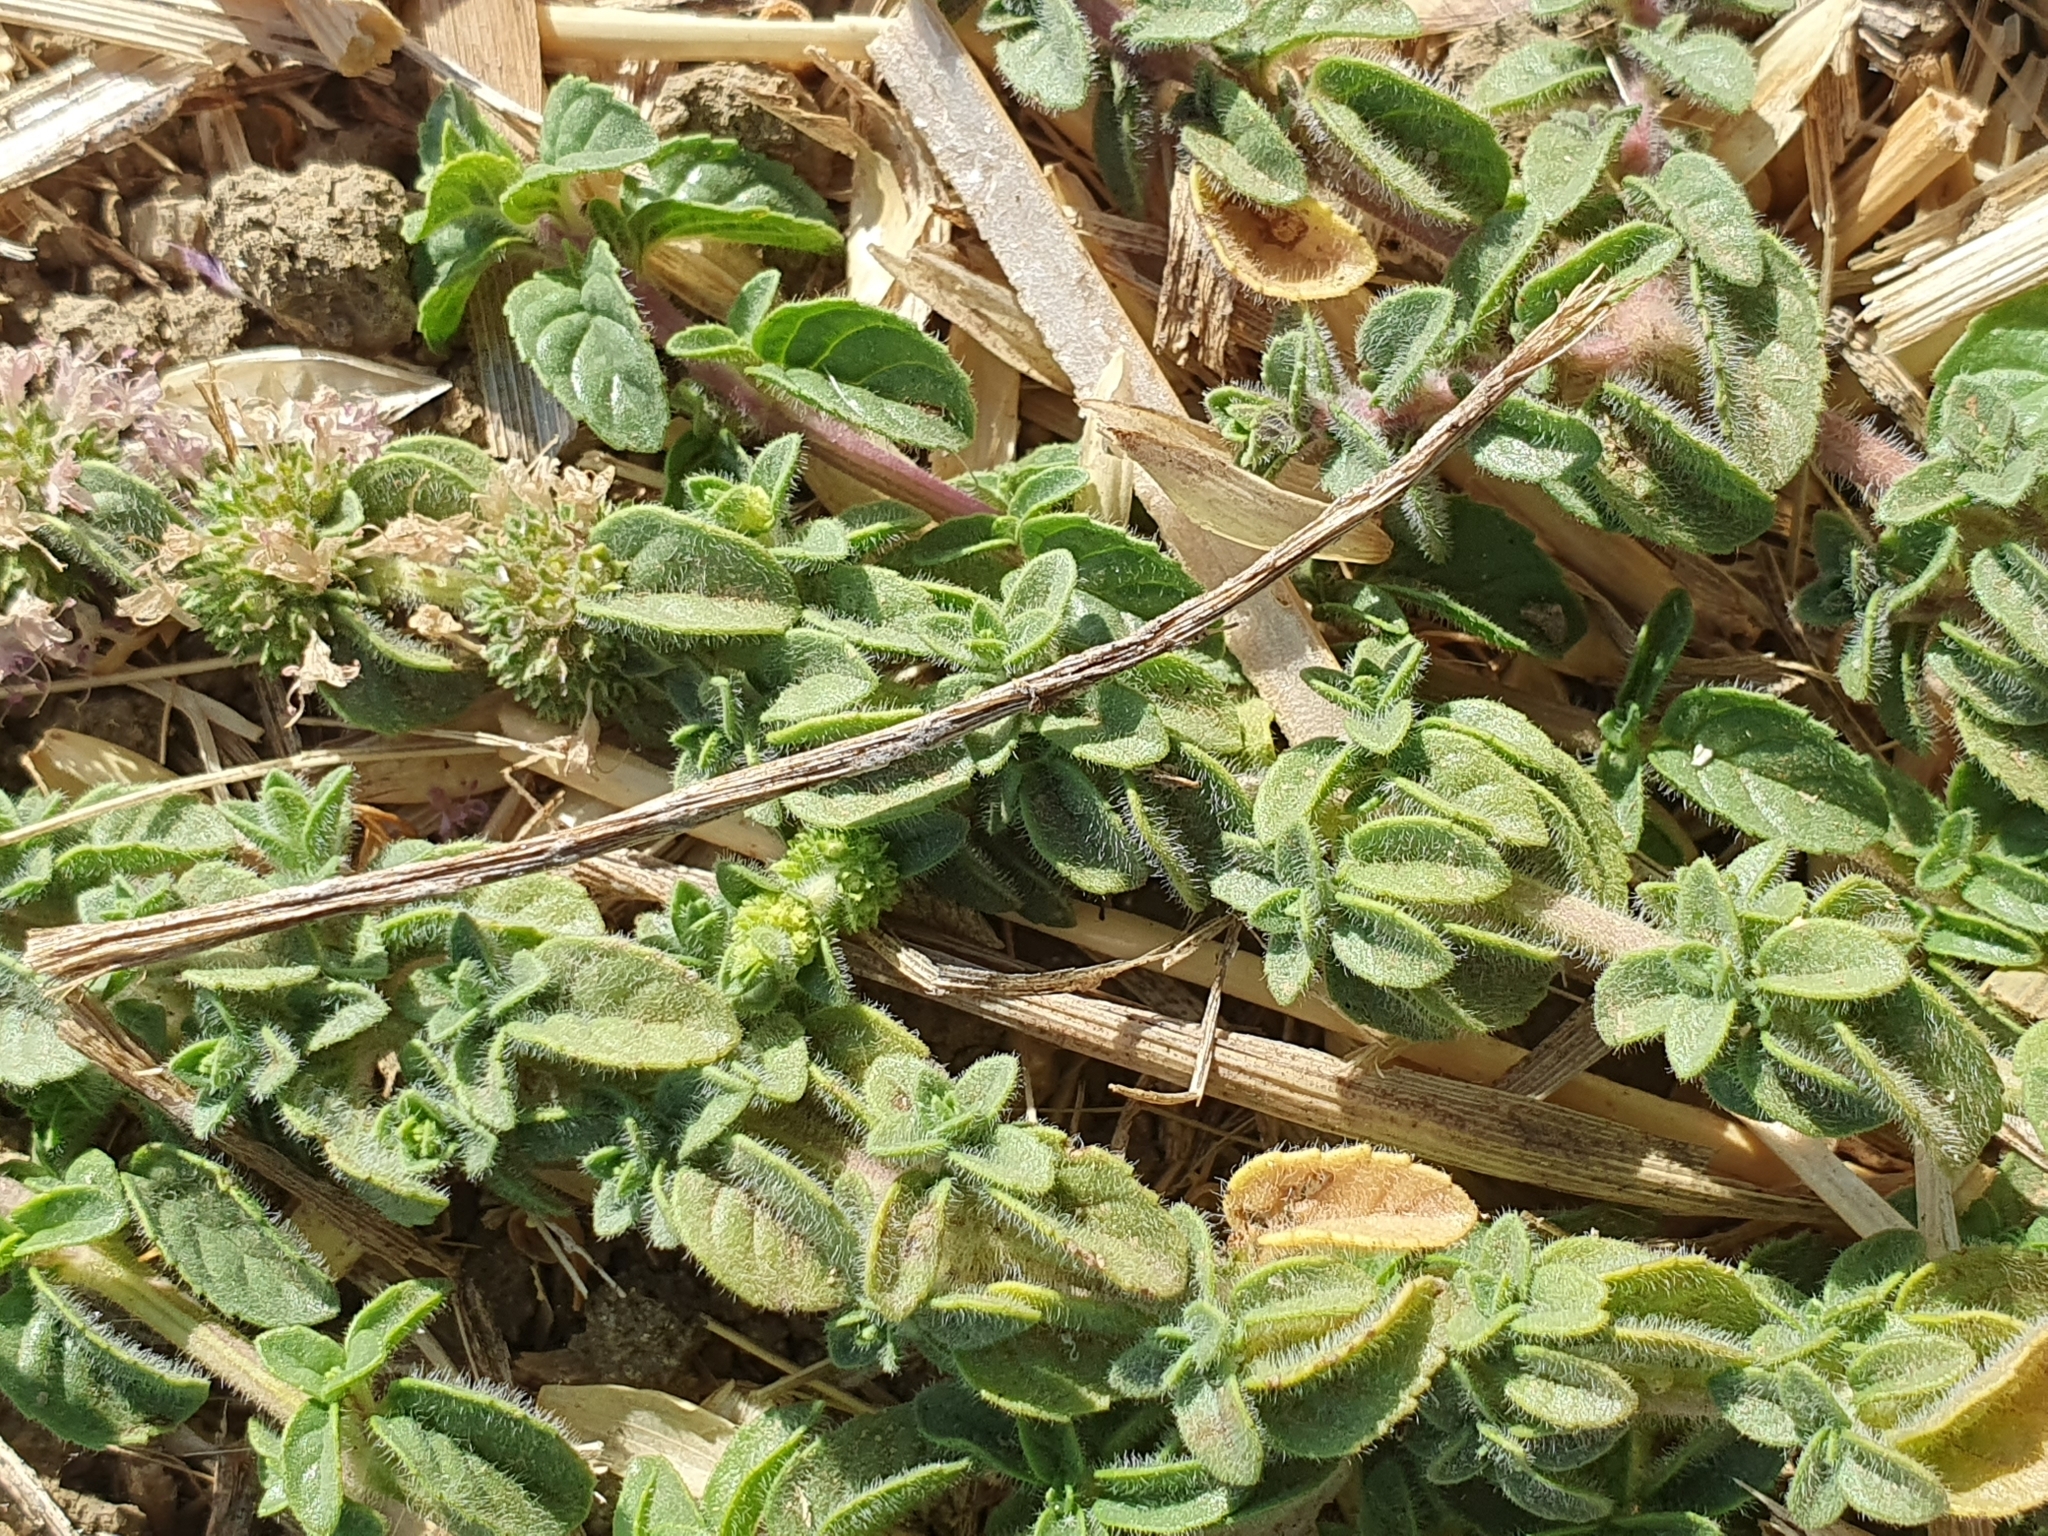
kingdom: Plantae
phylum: Tracheophyta
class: Magnoliopsida
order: Lamiales
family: Lamiaceae
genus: Mentha
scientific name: Mentha pulegium
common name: Pennyroyal
